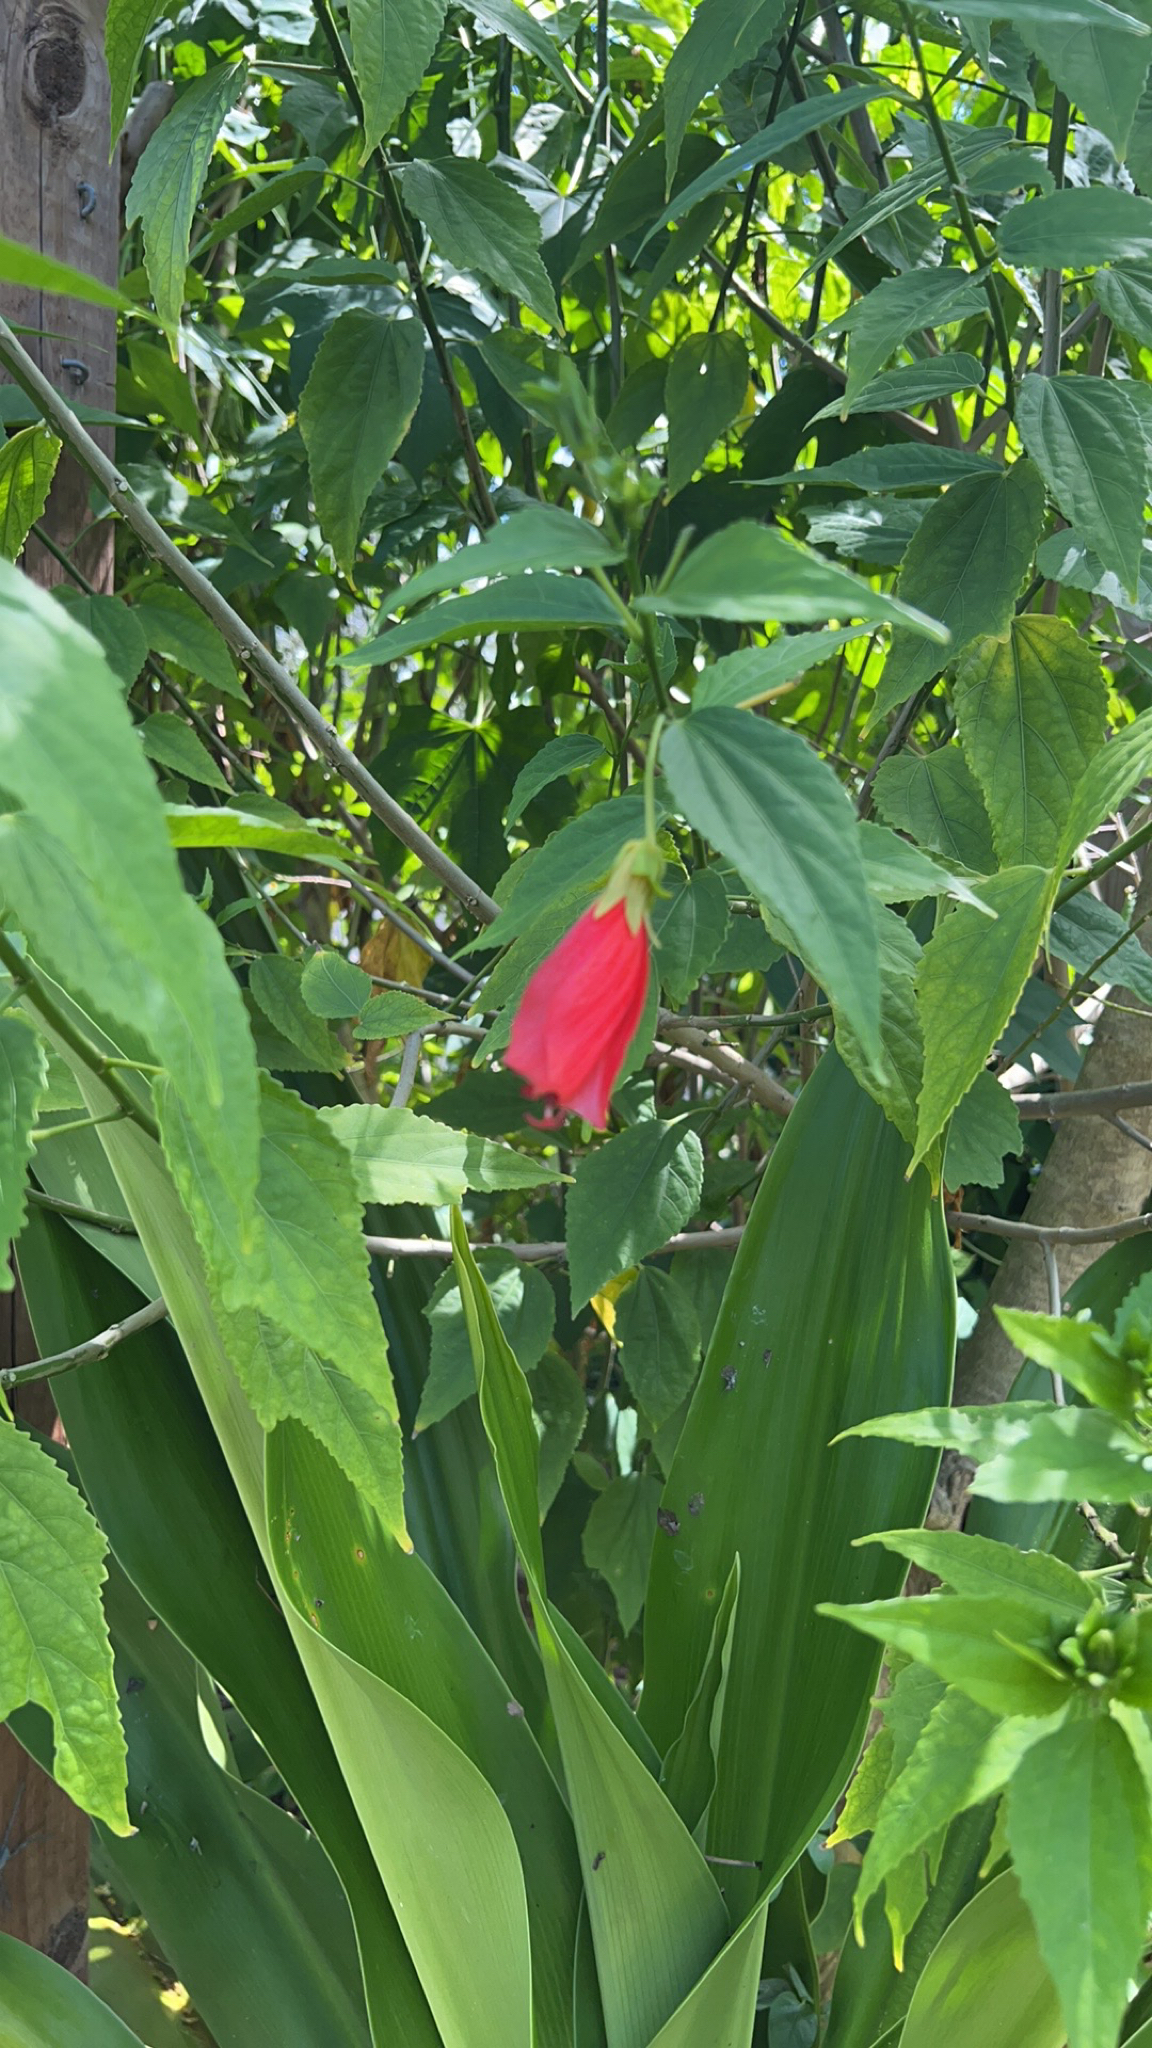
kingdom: Plantae
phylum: Tracheophyta
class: Magnoliopsida
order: Malvales
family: Malvaceae
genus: Malvaviscus
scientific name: Malvaviscus penduliflorus
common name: Mazapan
